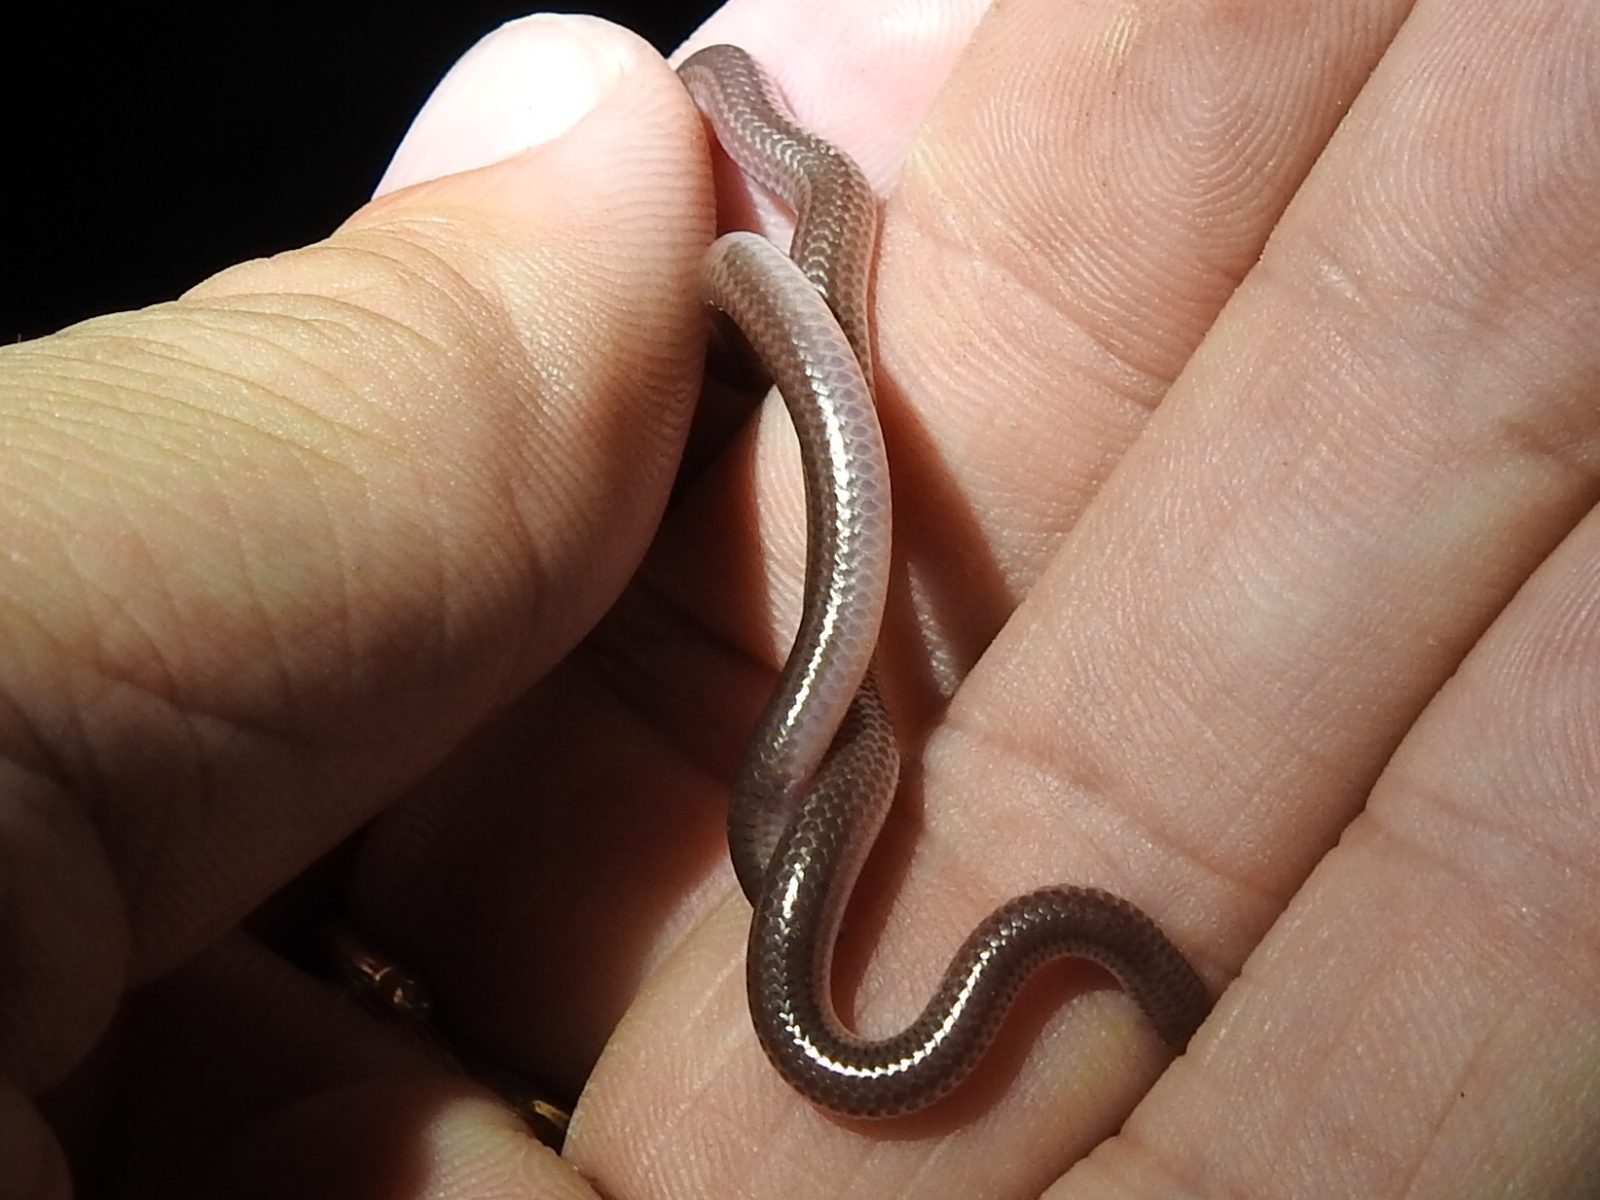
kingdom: Animalia
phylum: Chordata
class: Squamata
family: Leptotyphlopidae
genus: Rena
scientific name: Rena dulcis
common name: Texas blind snake
